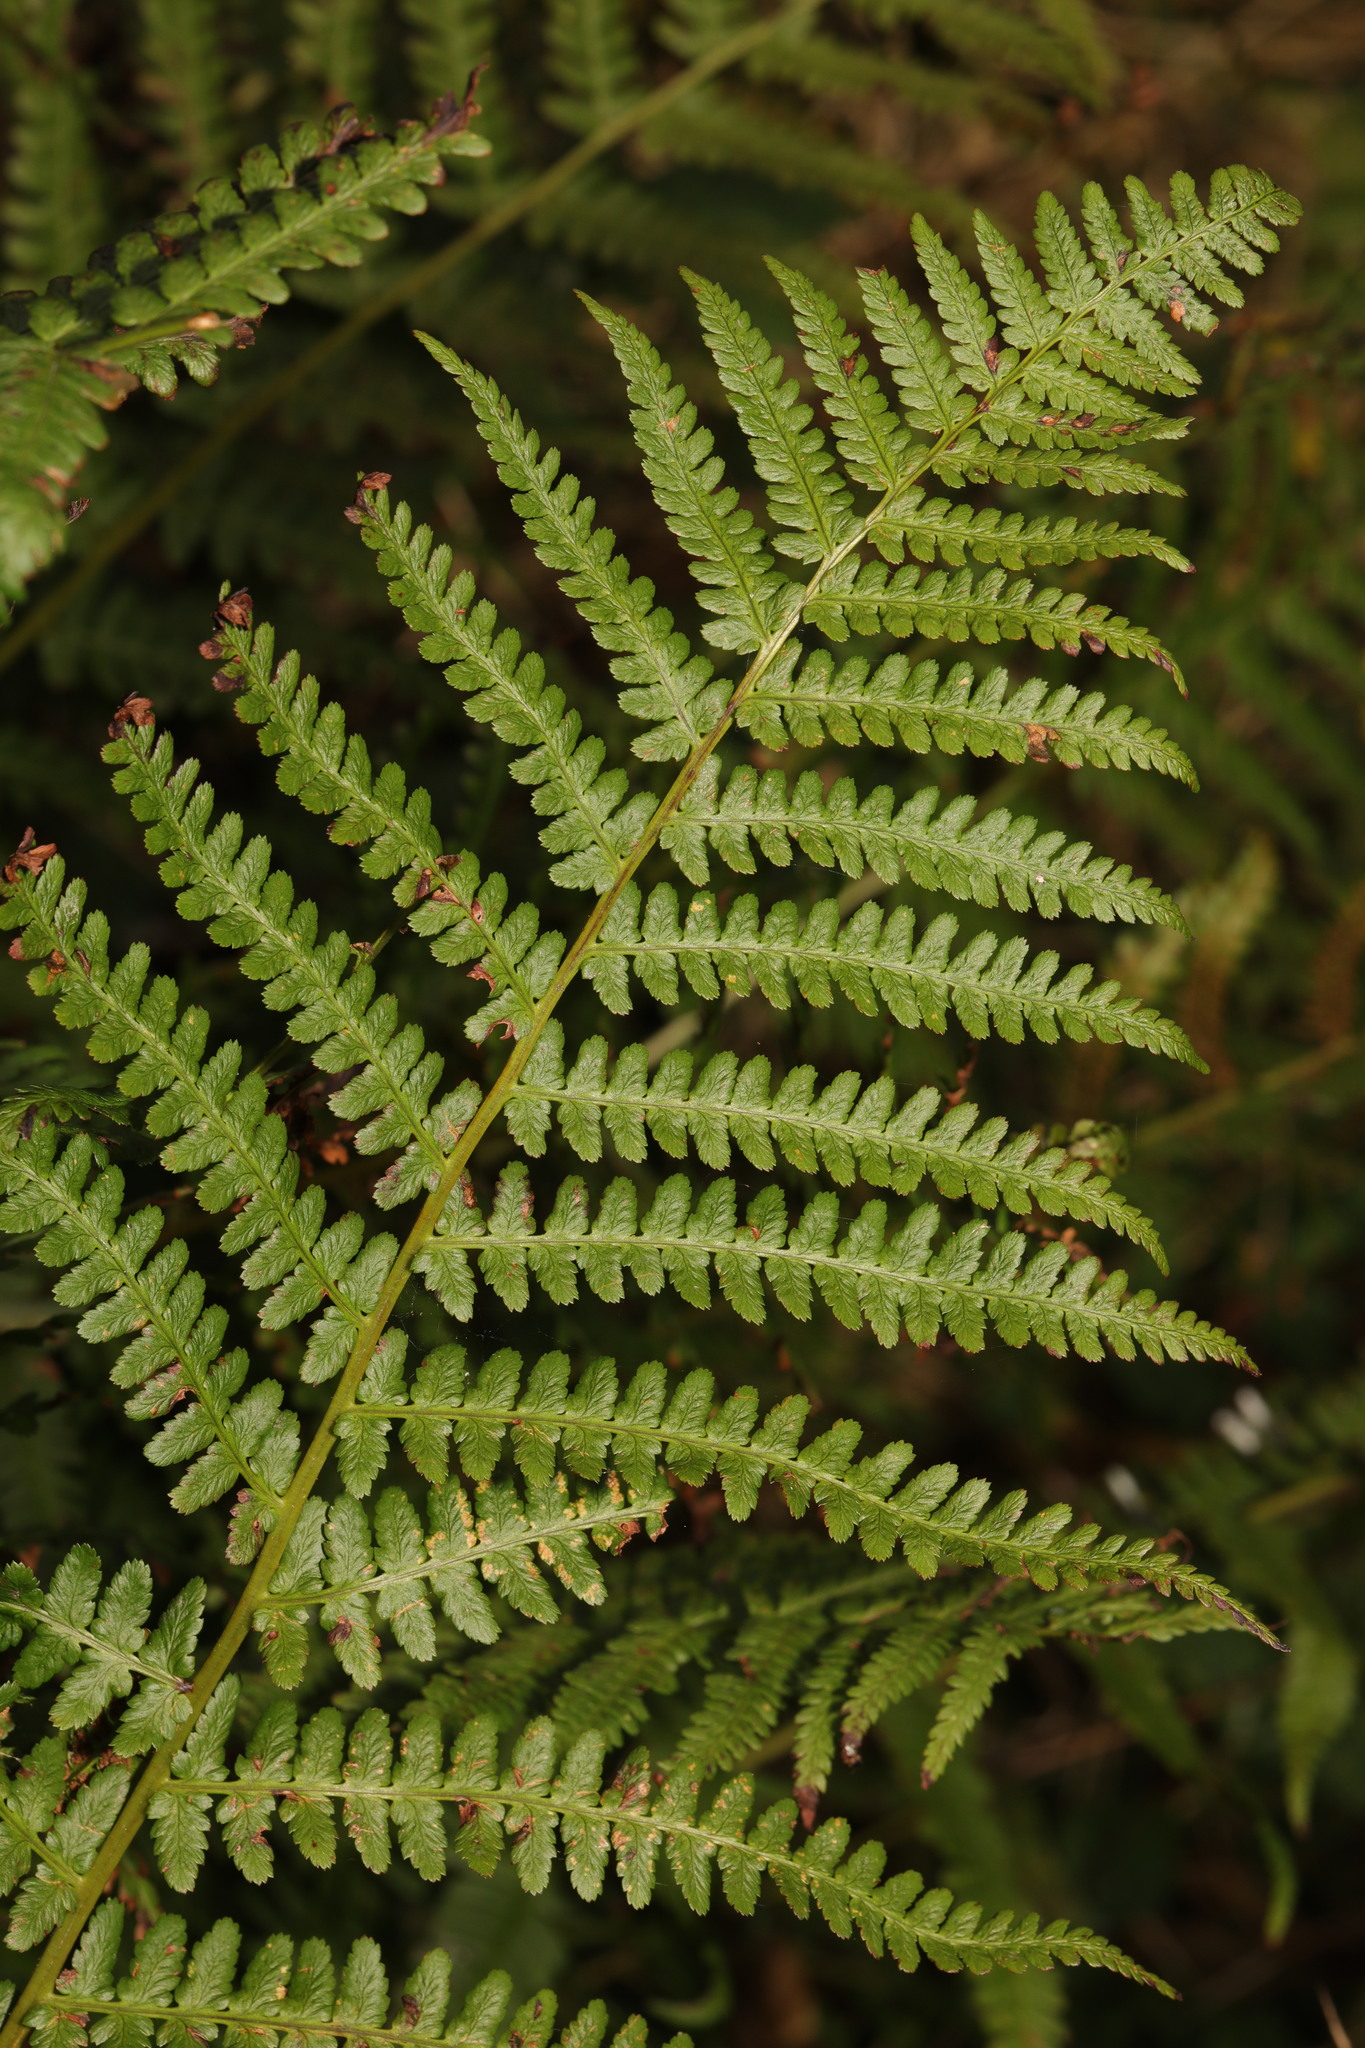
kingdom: Plantae
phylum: Tracheophyta
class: Polypodiopsida
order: Polypodiales
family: Dryopteridaceae
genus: Dryopteris
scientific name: Dryopteris filix-mas
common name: Male fern
